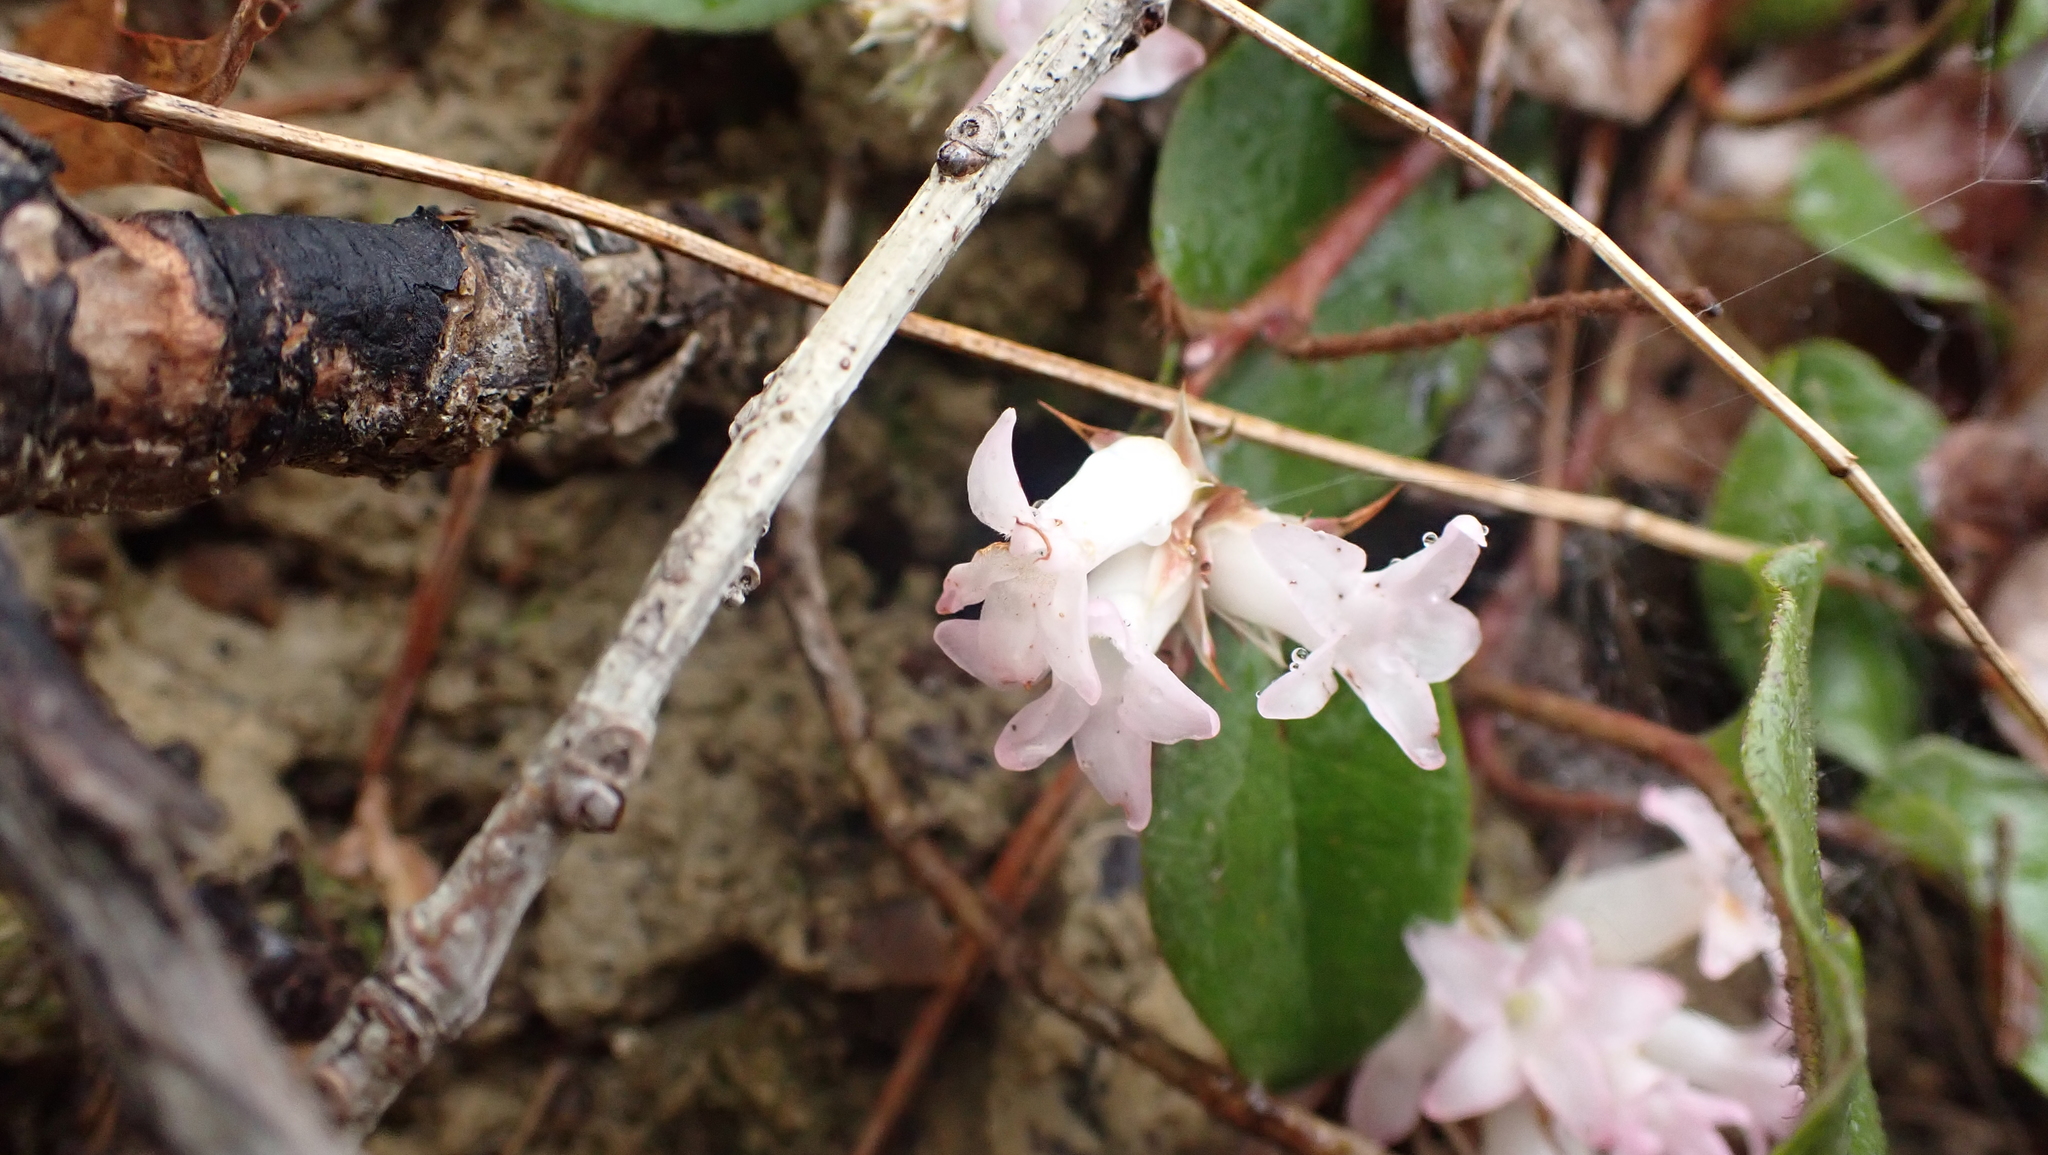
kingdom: Plantae
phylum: Tracheophyta
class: Magnoliopsida
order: Ericales
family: Ericaceae
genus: Epigaea
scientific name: Epigaea repens
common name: Gravelroot
